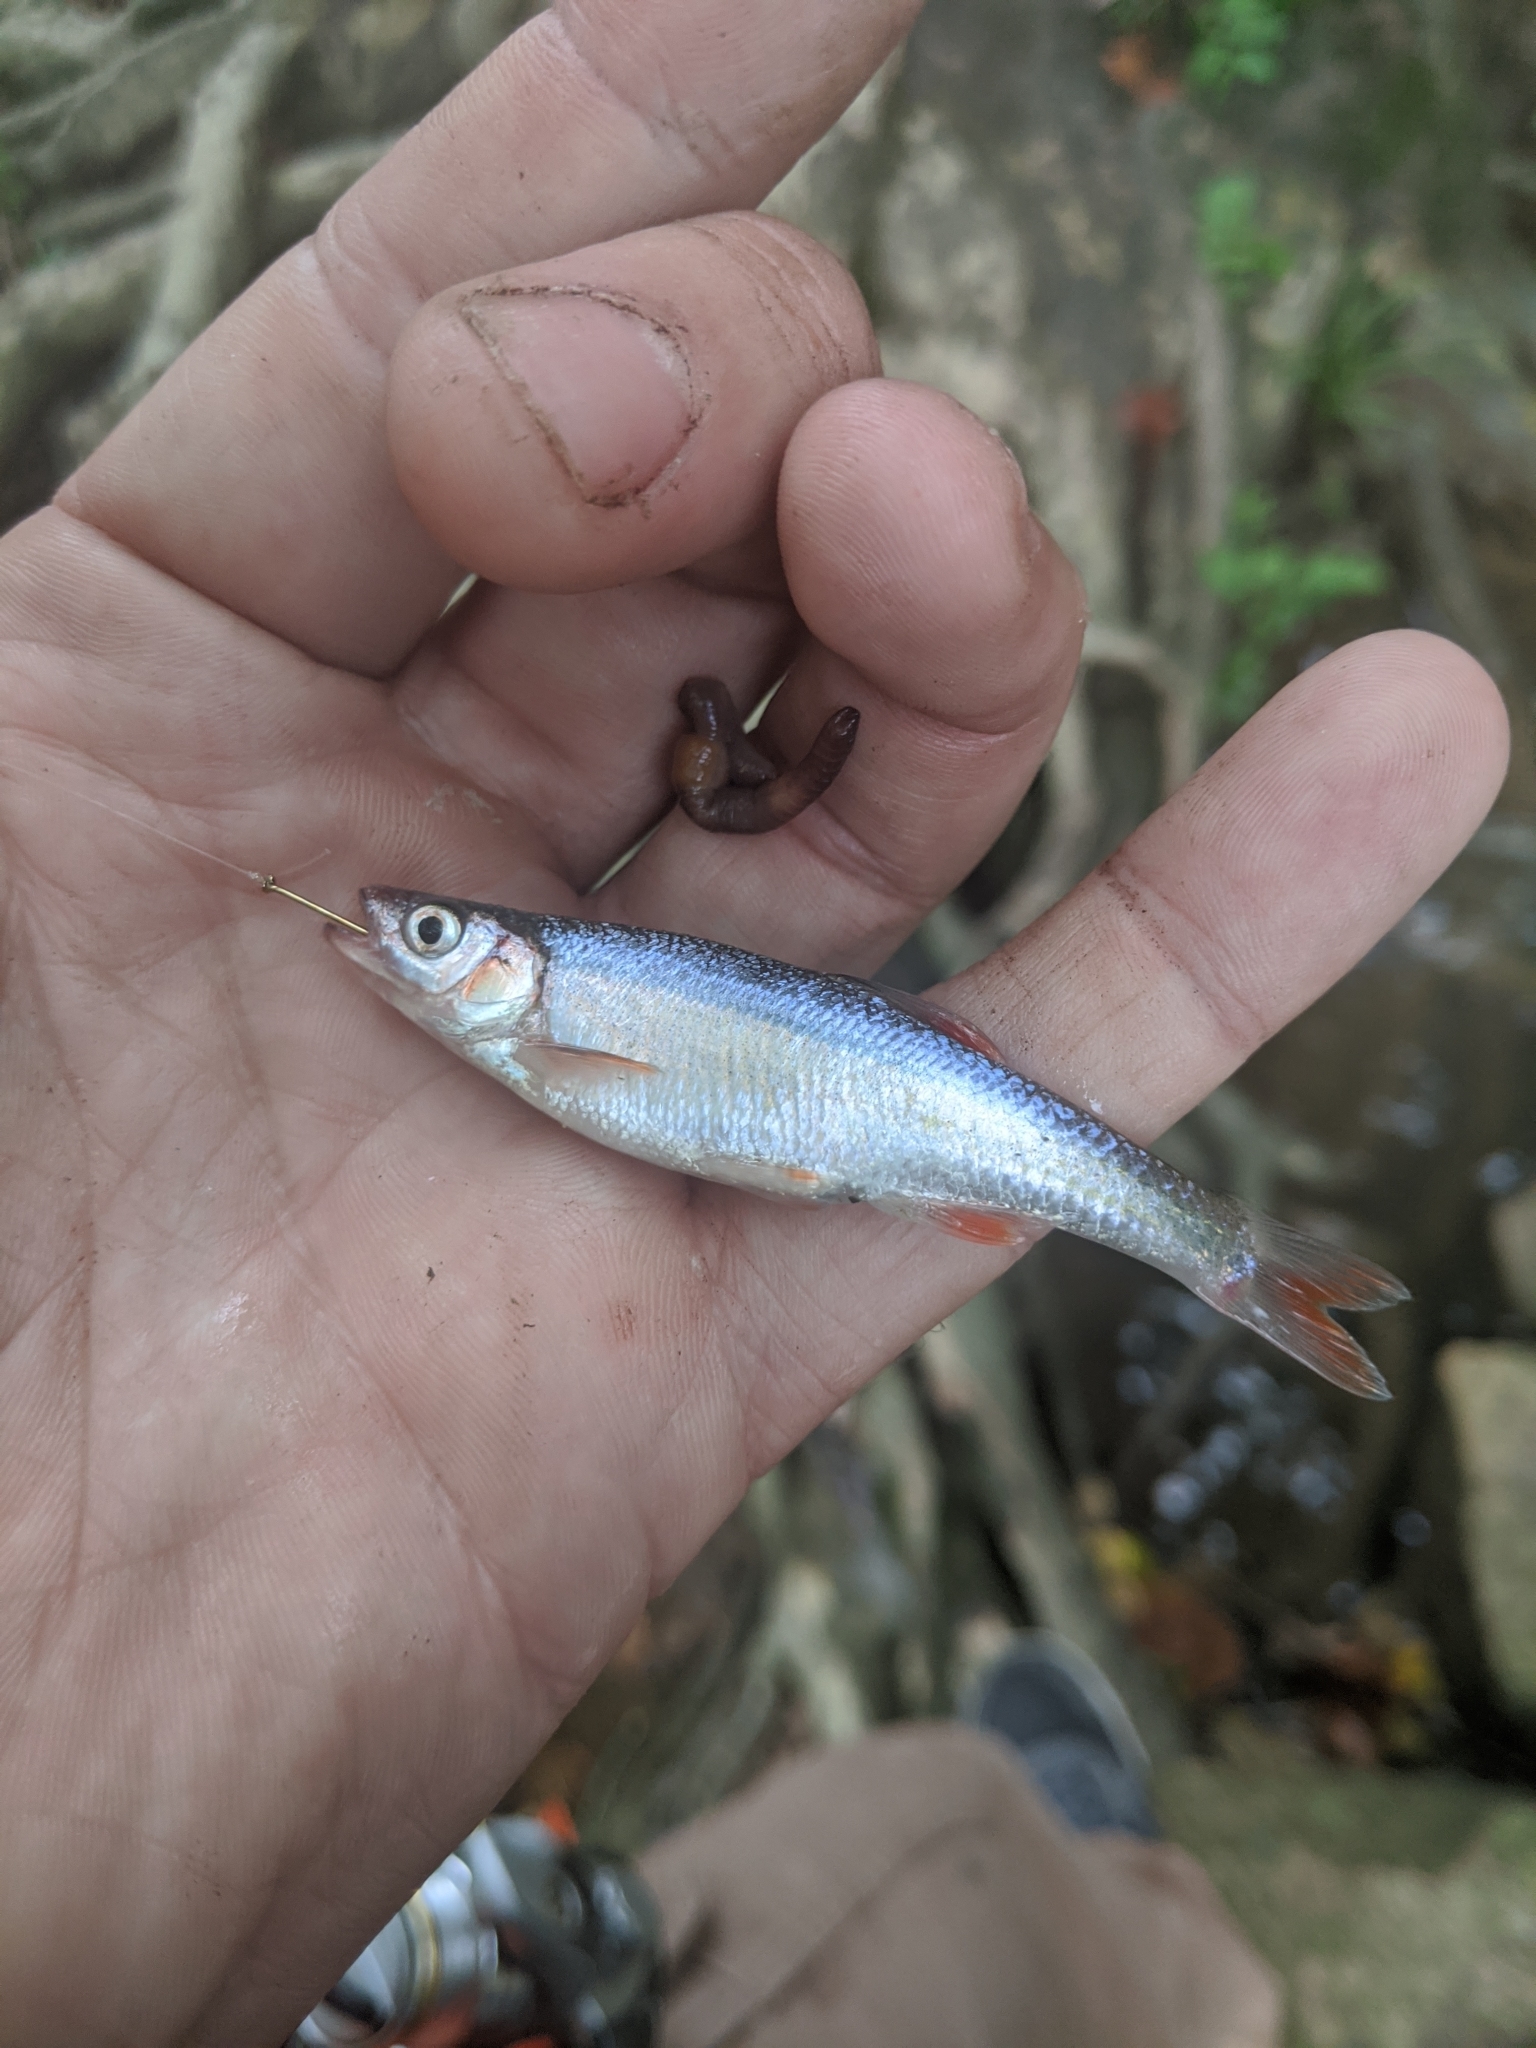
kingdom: Animalia
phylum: Chordata
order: Cypriniformes
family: Cyprinidae
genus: Lythrurus
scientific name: Lythrurus fasciolaris
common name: Scarlet shiner
